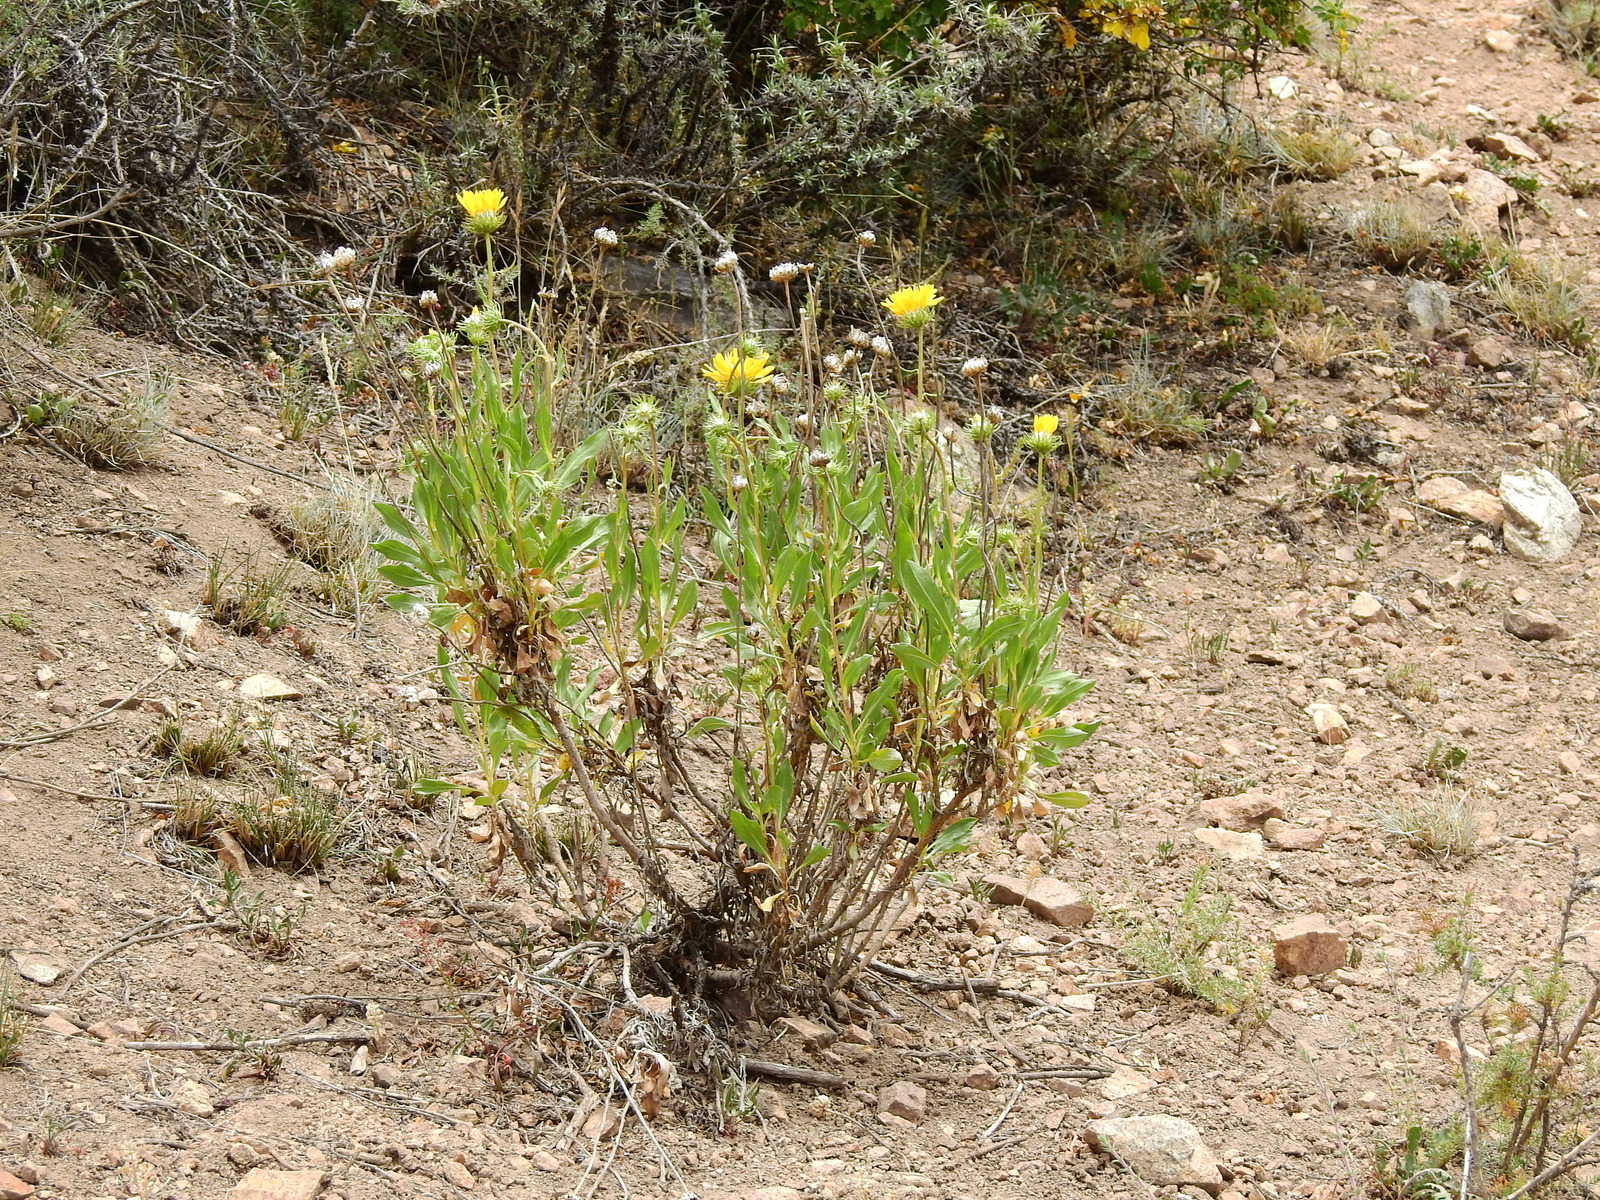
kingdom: Plantae
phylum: Tracheophyta
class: Magnoliopsida
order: Asterales
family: Asteraceae
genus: Grindelia
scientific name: Grindelia chiloensis
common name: Shrubby gumweed
